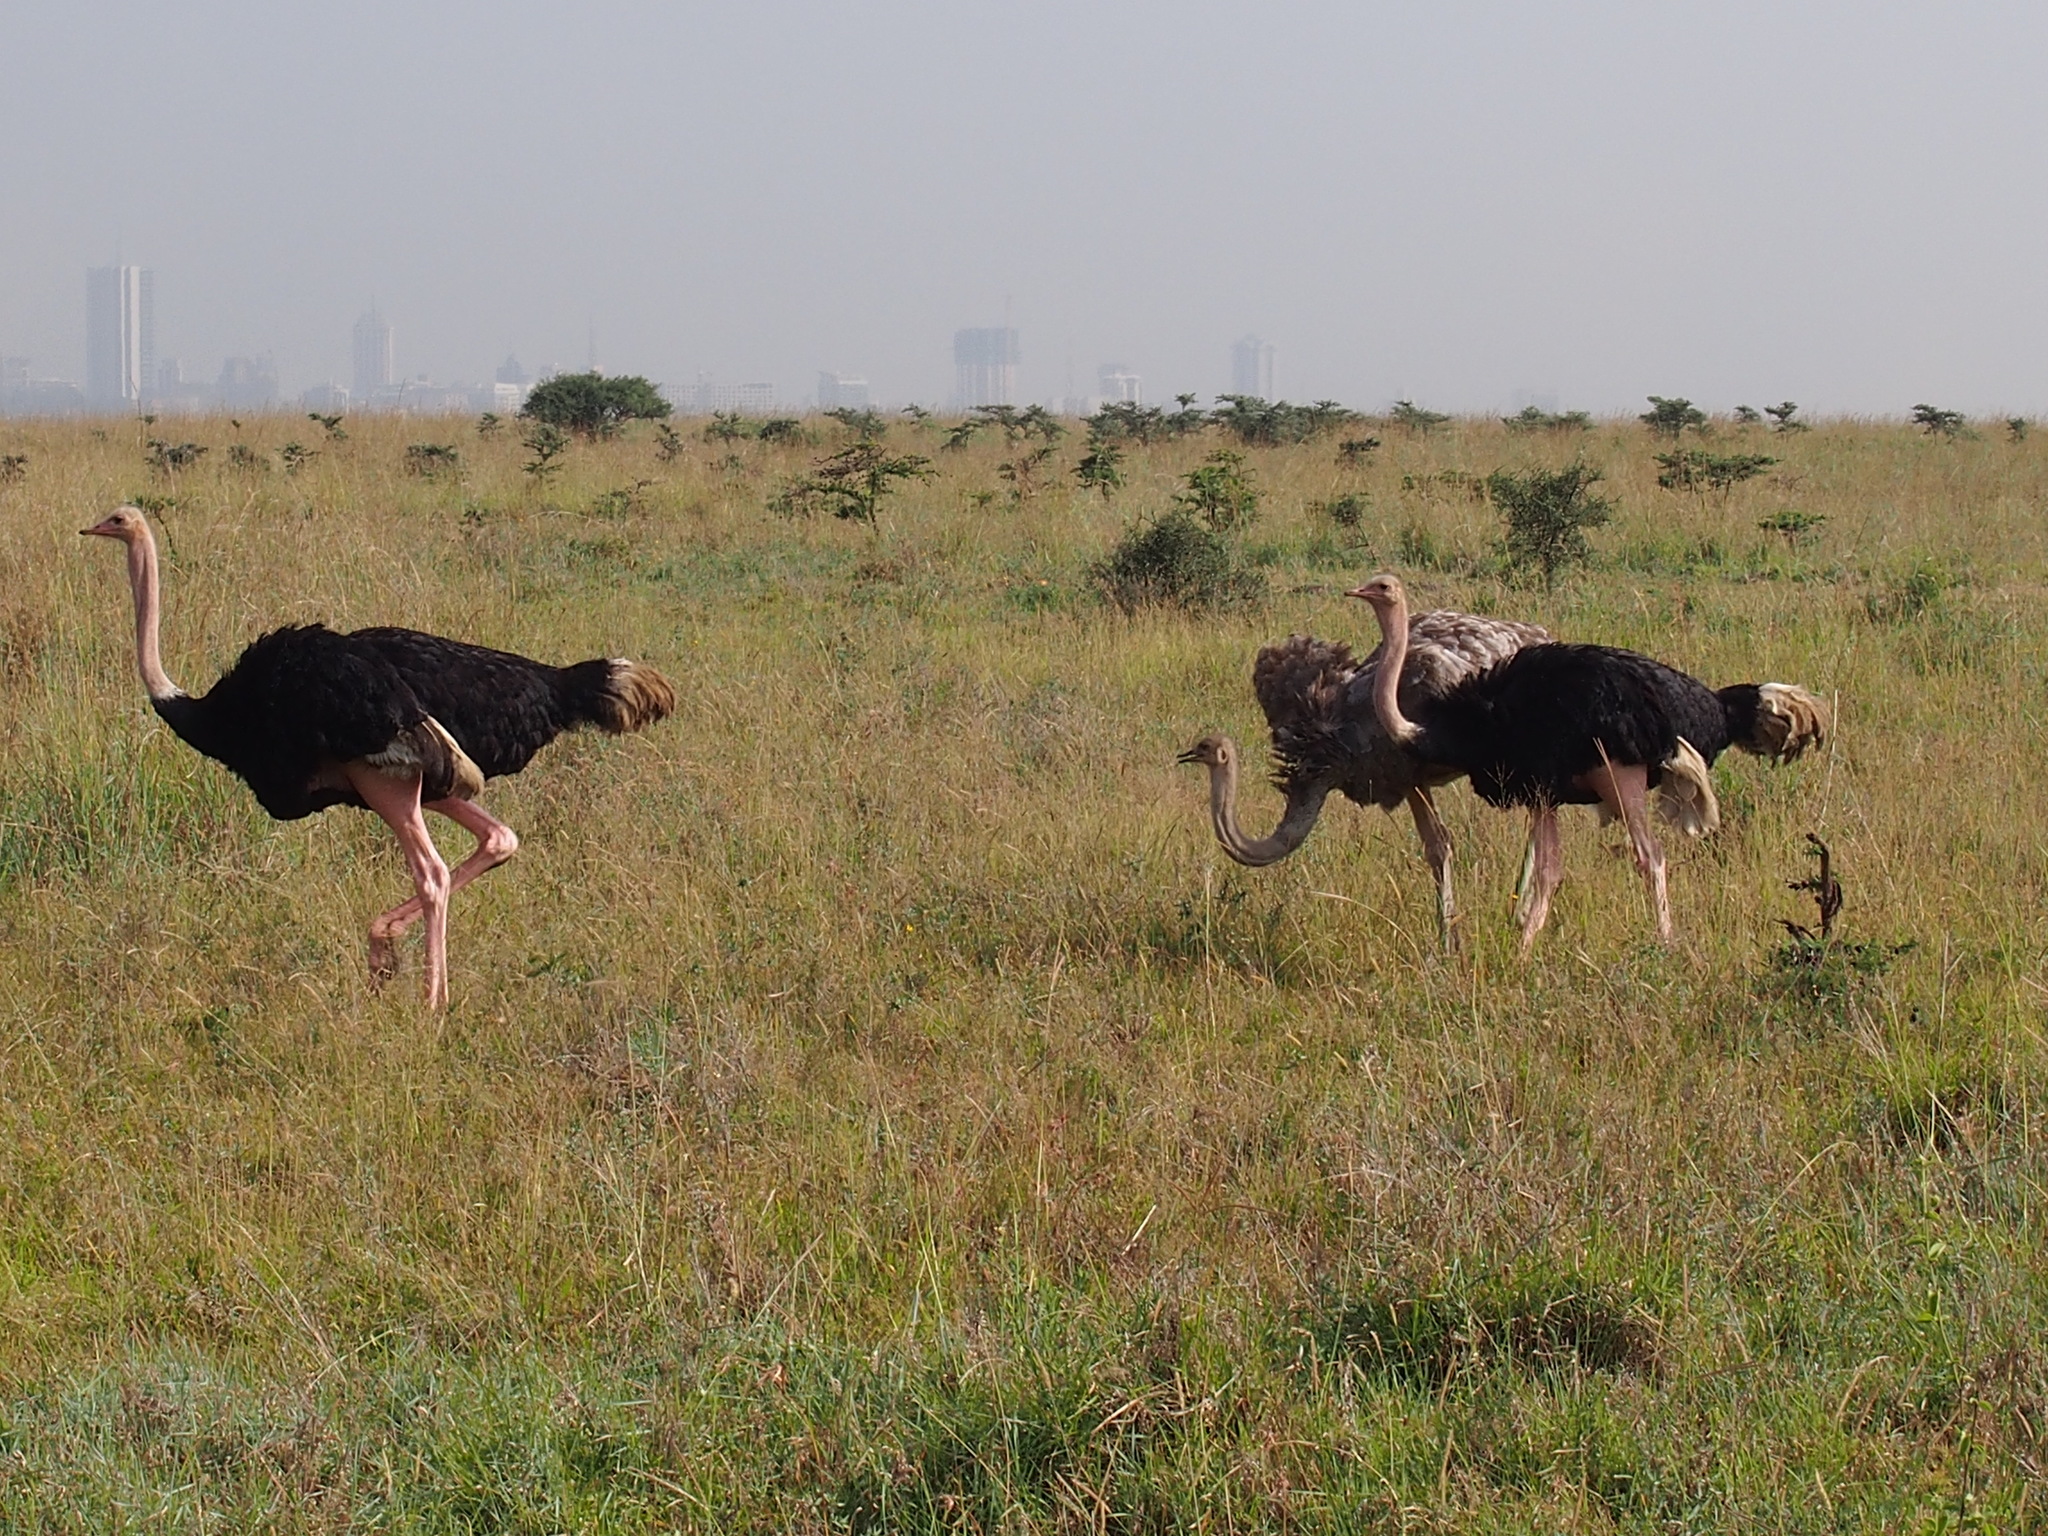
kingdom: Animalia
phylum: Chordata
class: Aves
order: Struthioniformes
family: Struthionidae
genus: Struthio
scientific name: Struthio camelus
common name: Common ostrich
